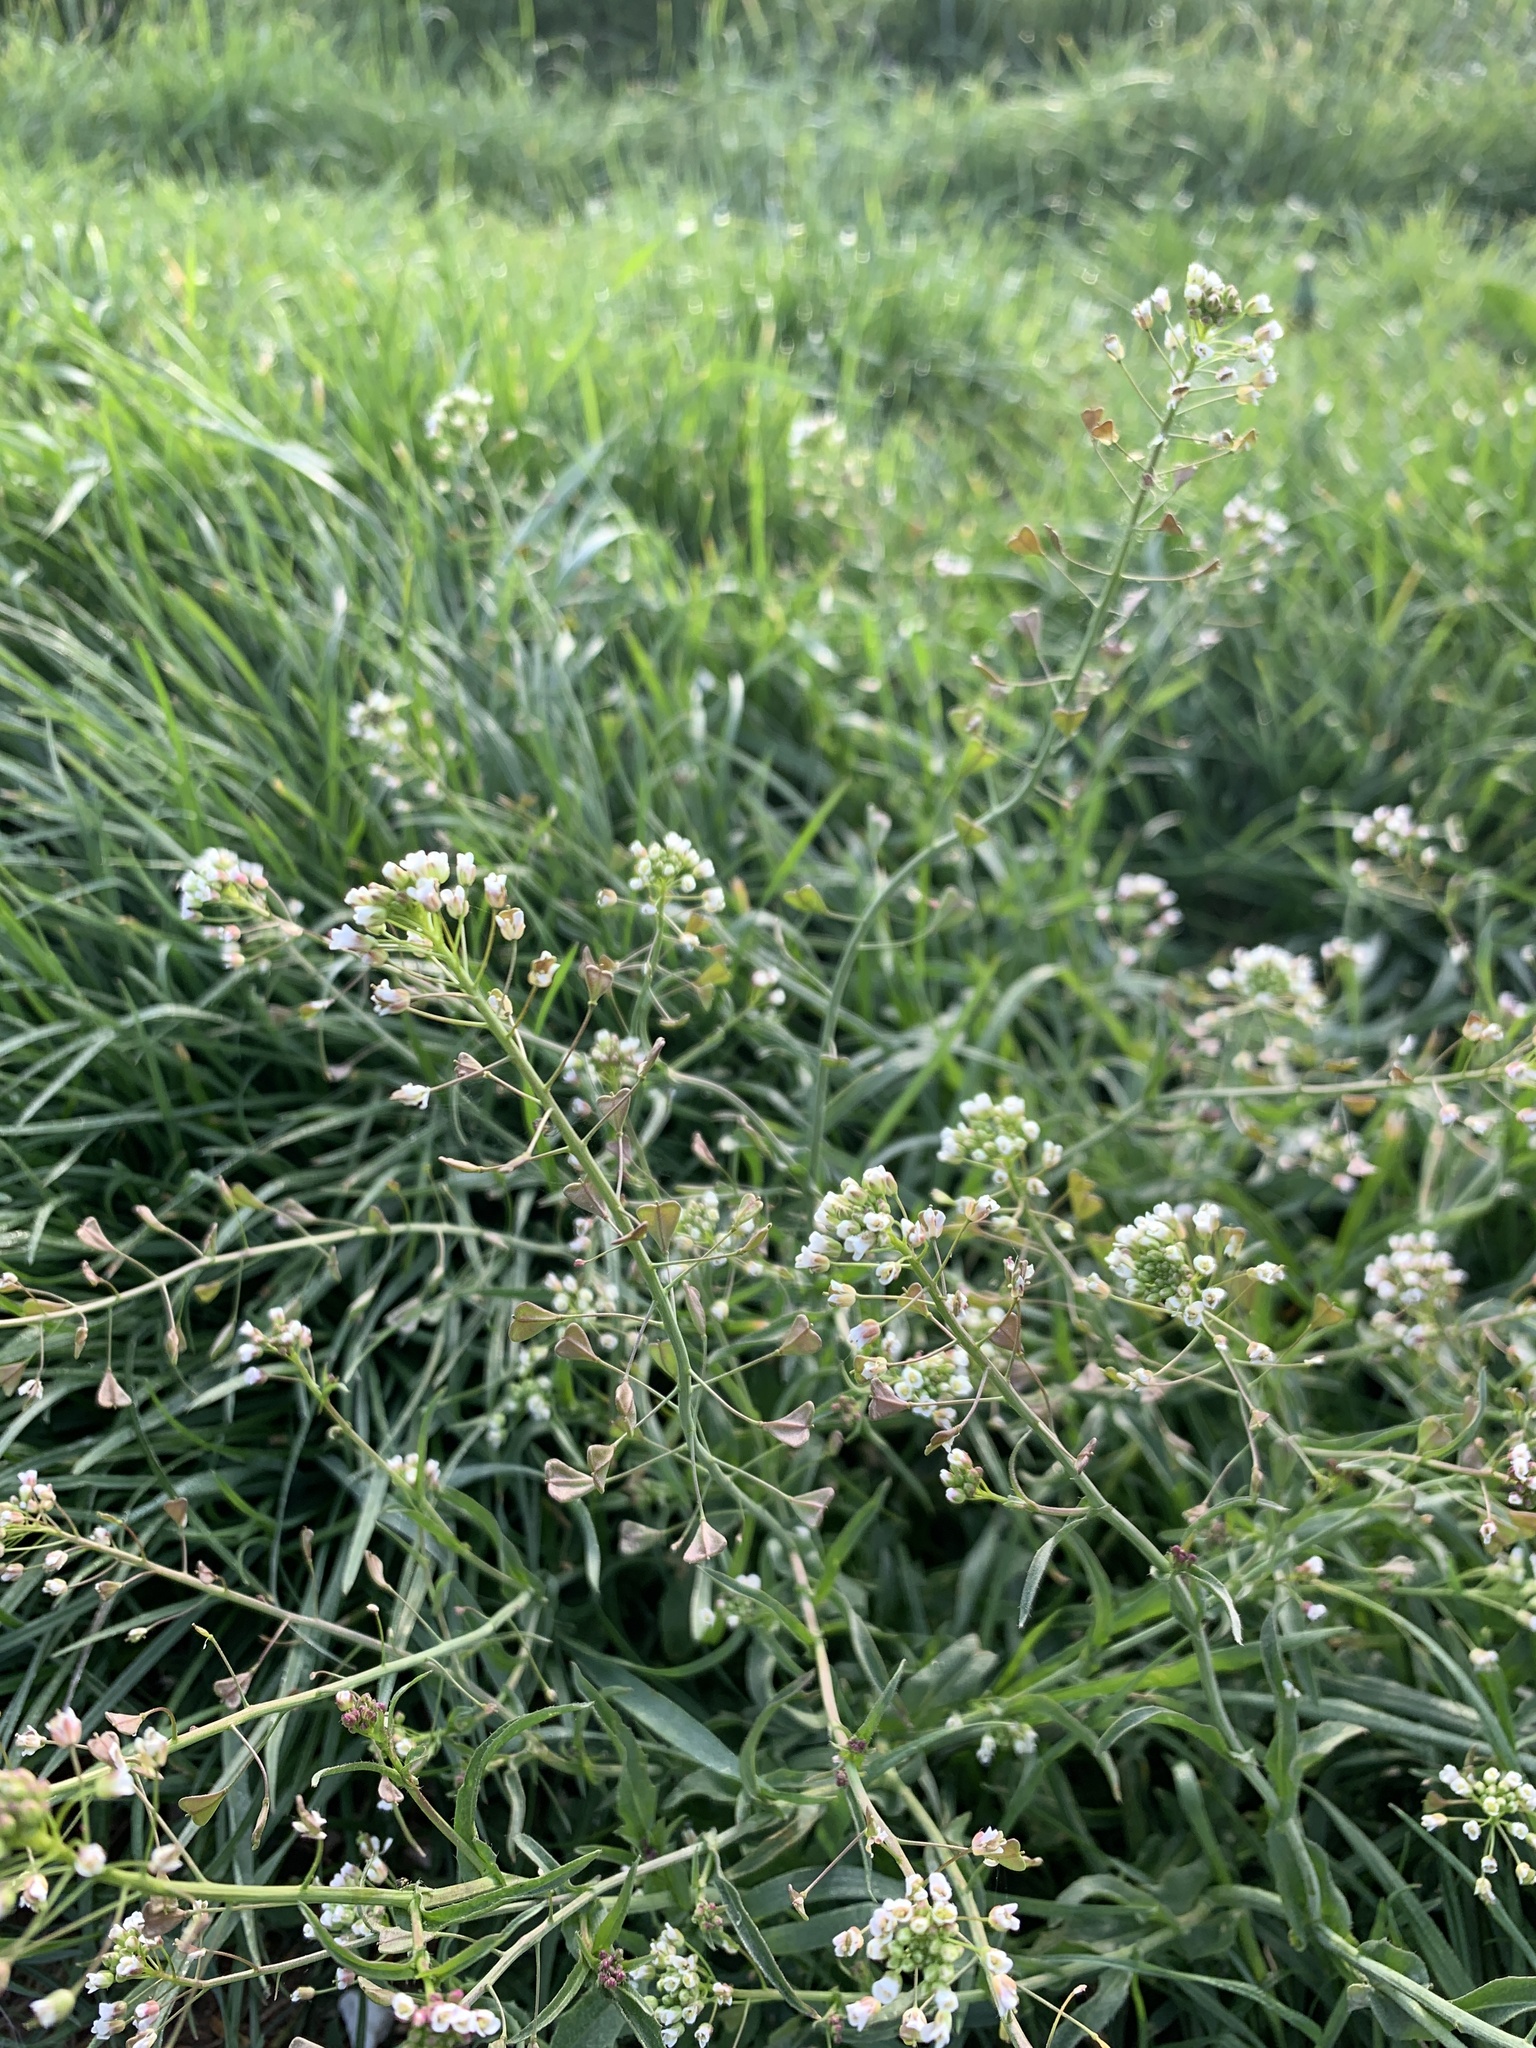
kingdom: Plantae
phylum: Tracheophyta
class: Magnoliopsida
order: Brassicales
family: Brassicaceae
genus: Capsella
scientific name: Capsella bursa-pastoris
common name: Shepherd's purse
